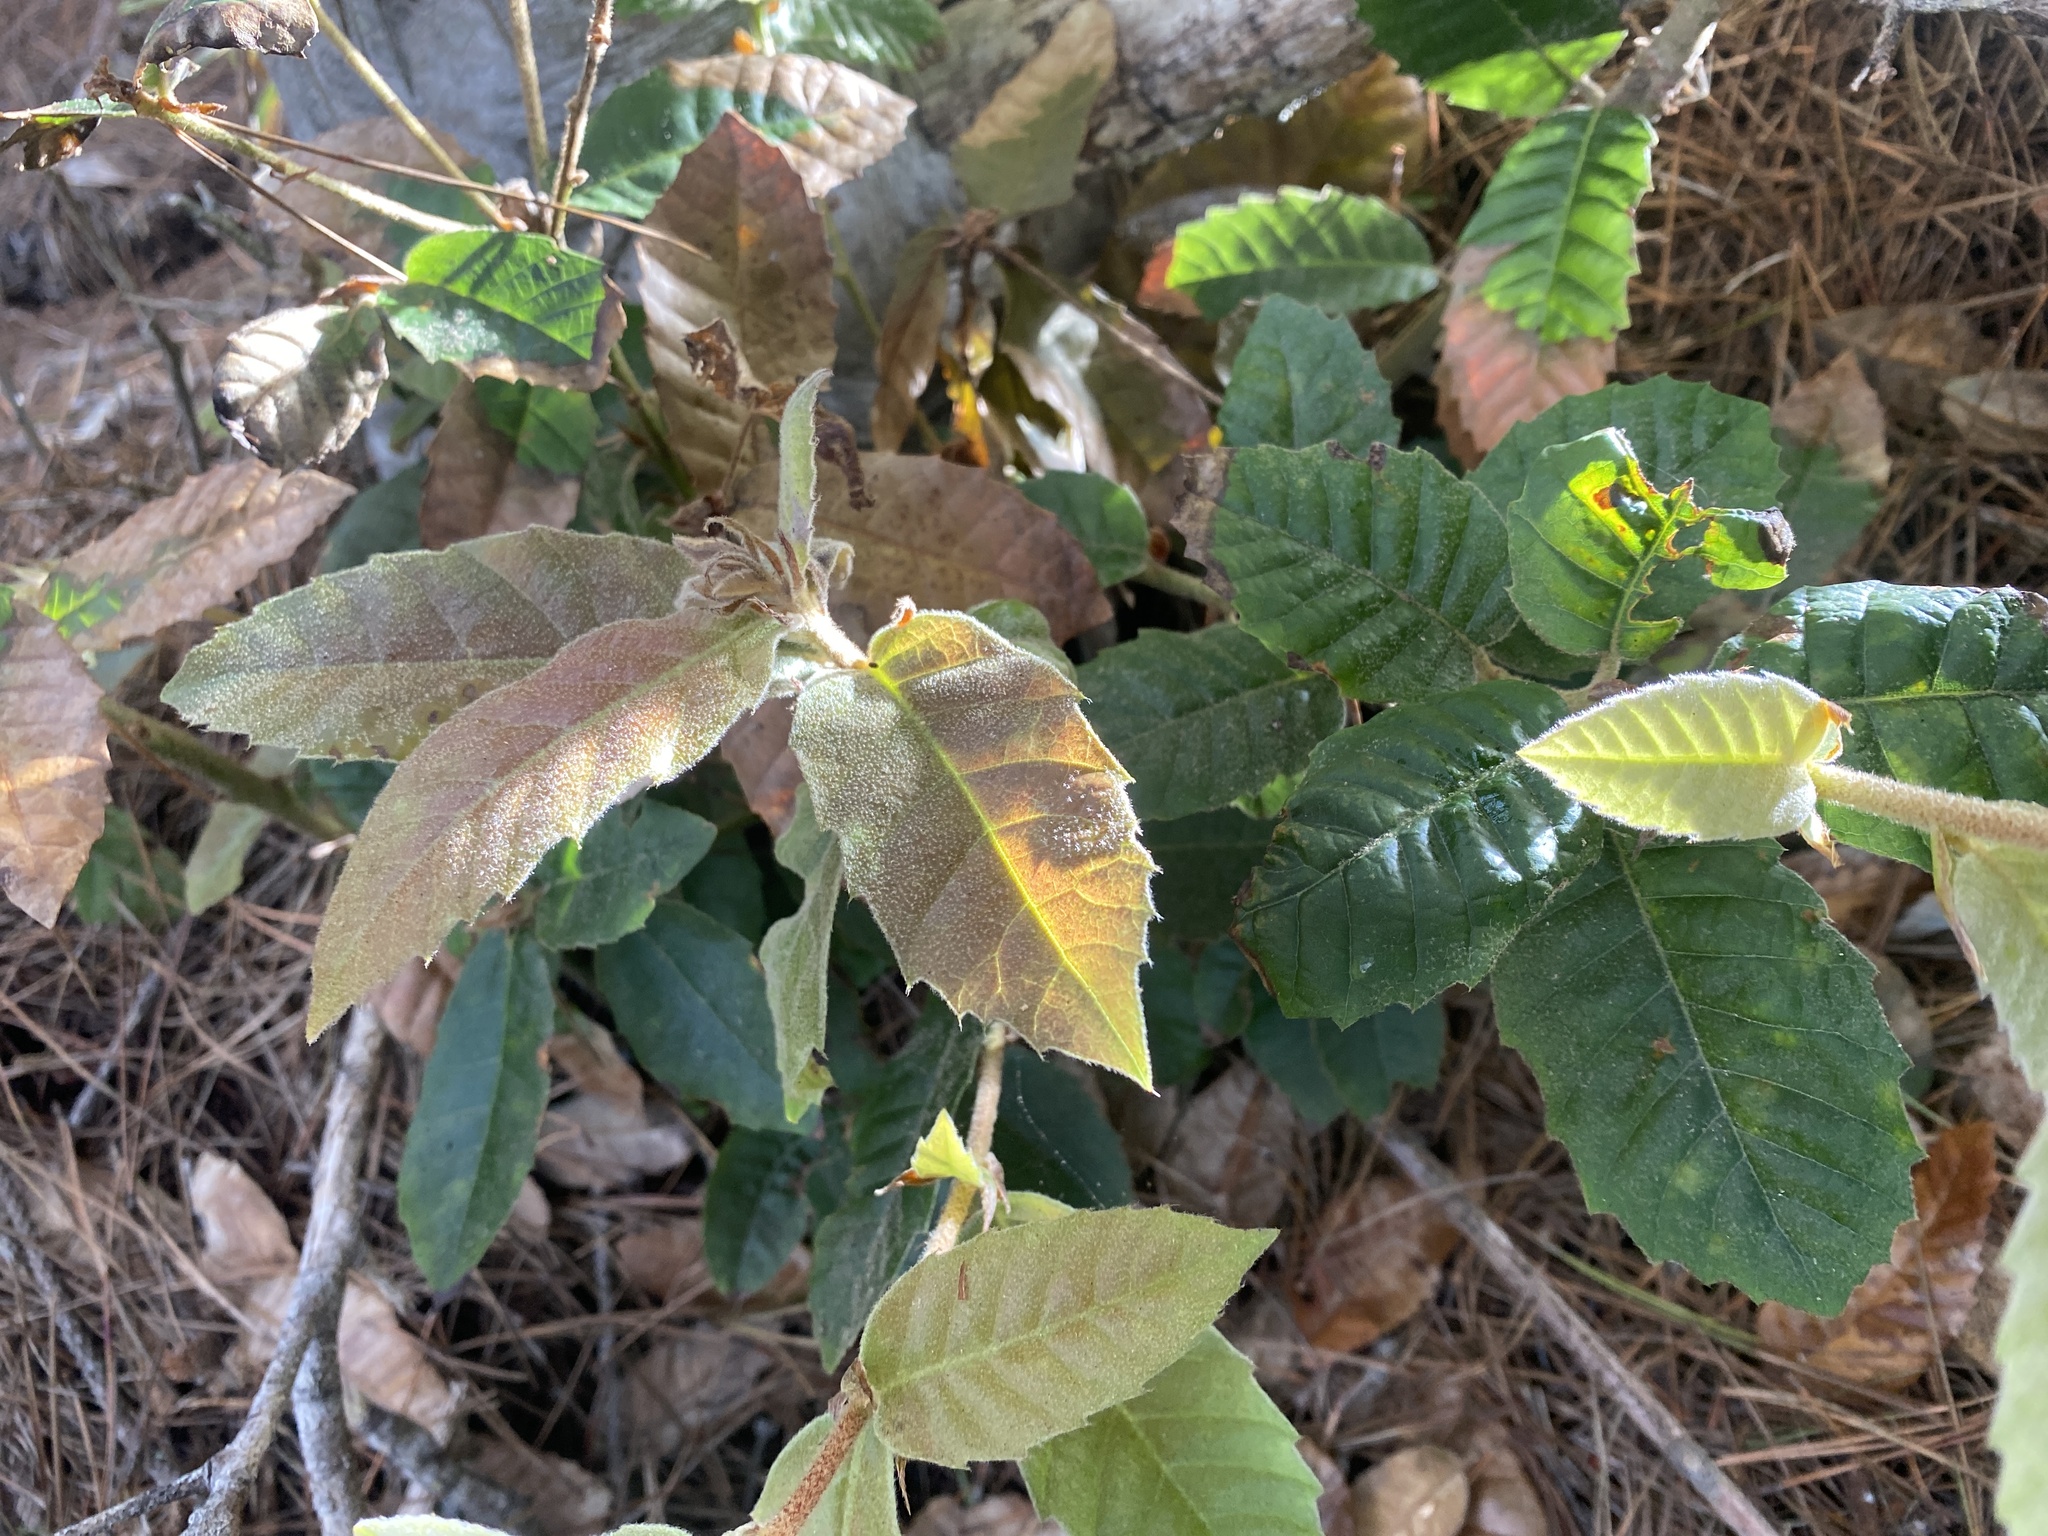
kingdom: Plantae
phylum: Tracheophyta
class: Magnoliopsida
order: Fagales
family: Fagaceae
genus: Notholithocarpus
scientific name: Notholithocarpus densiflorus
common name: Tan bark oak
